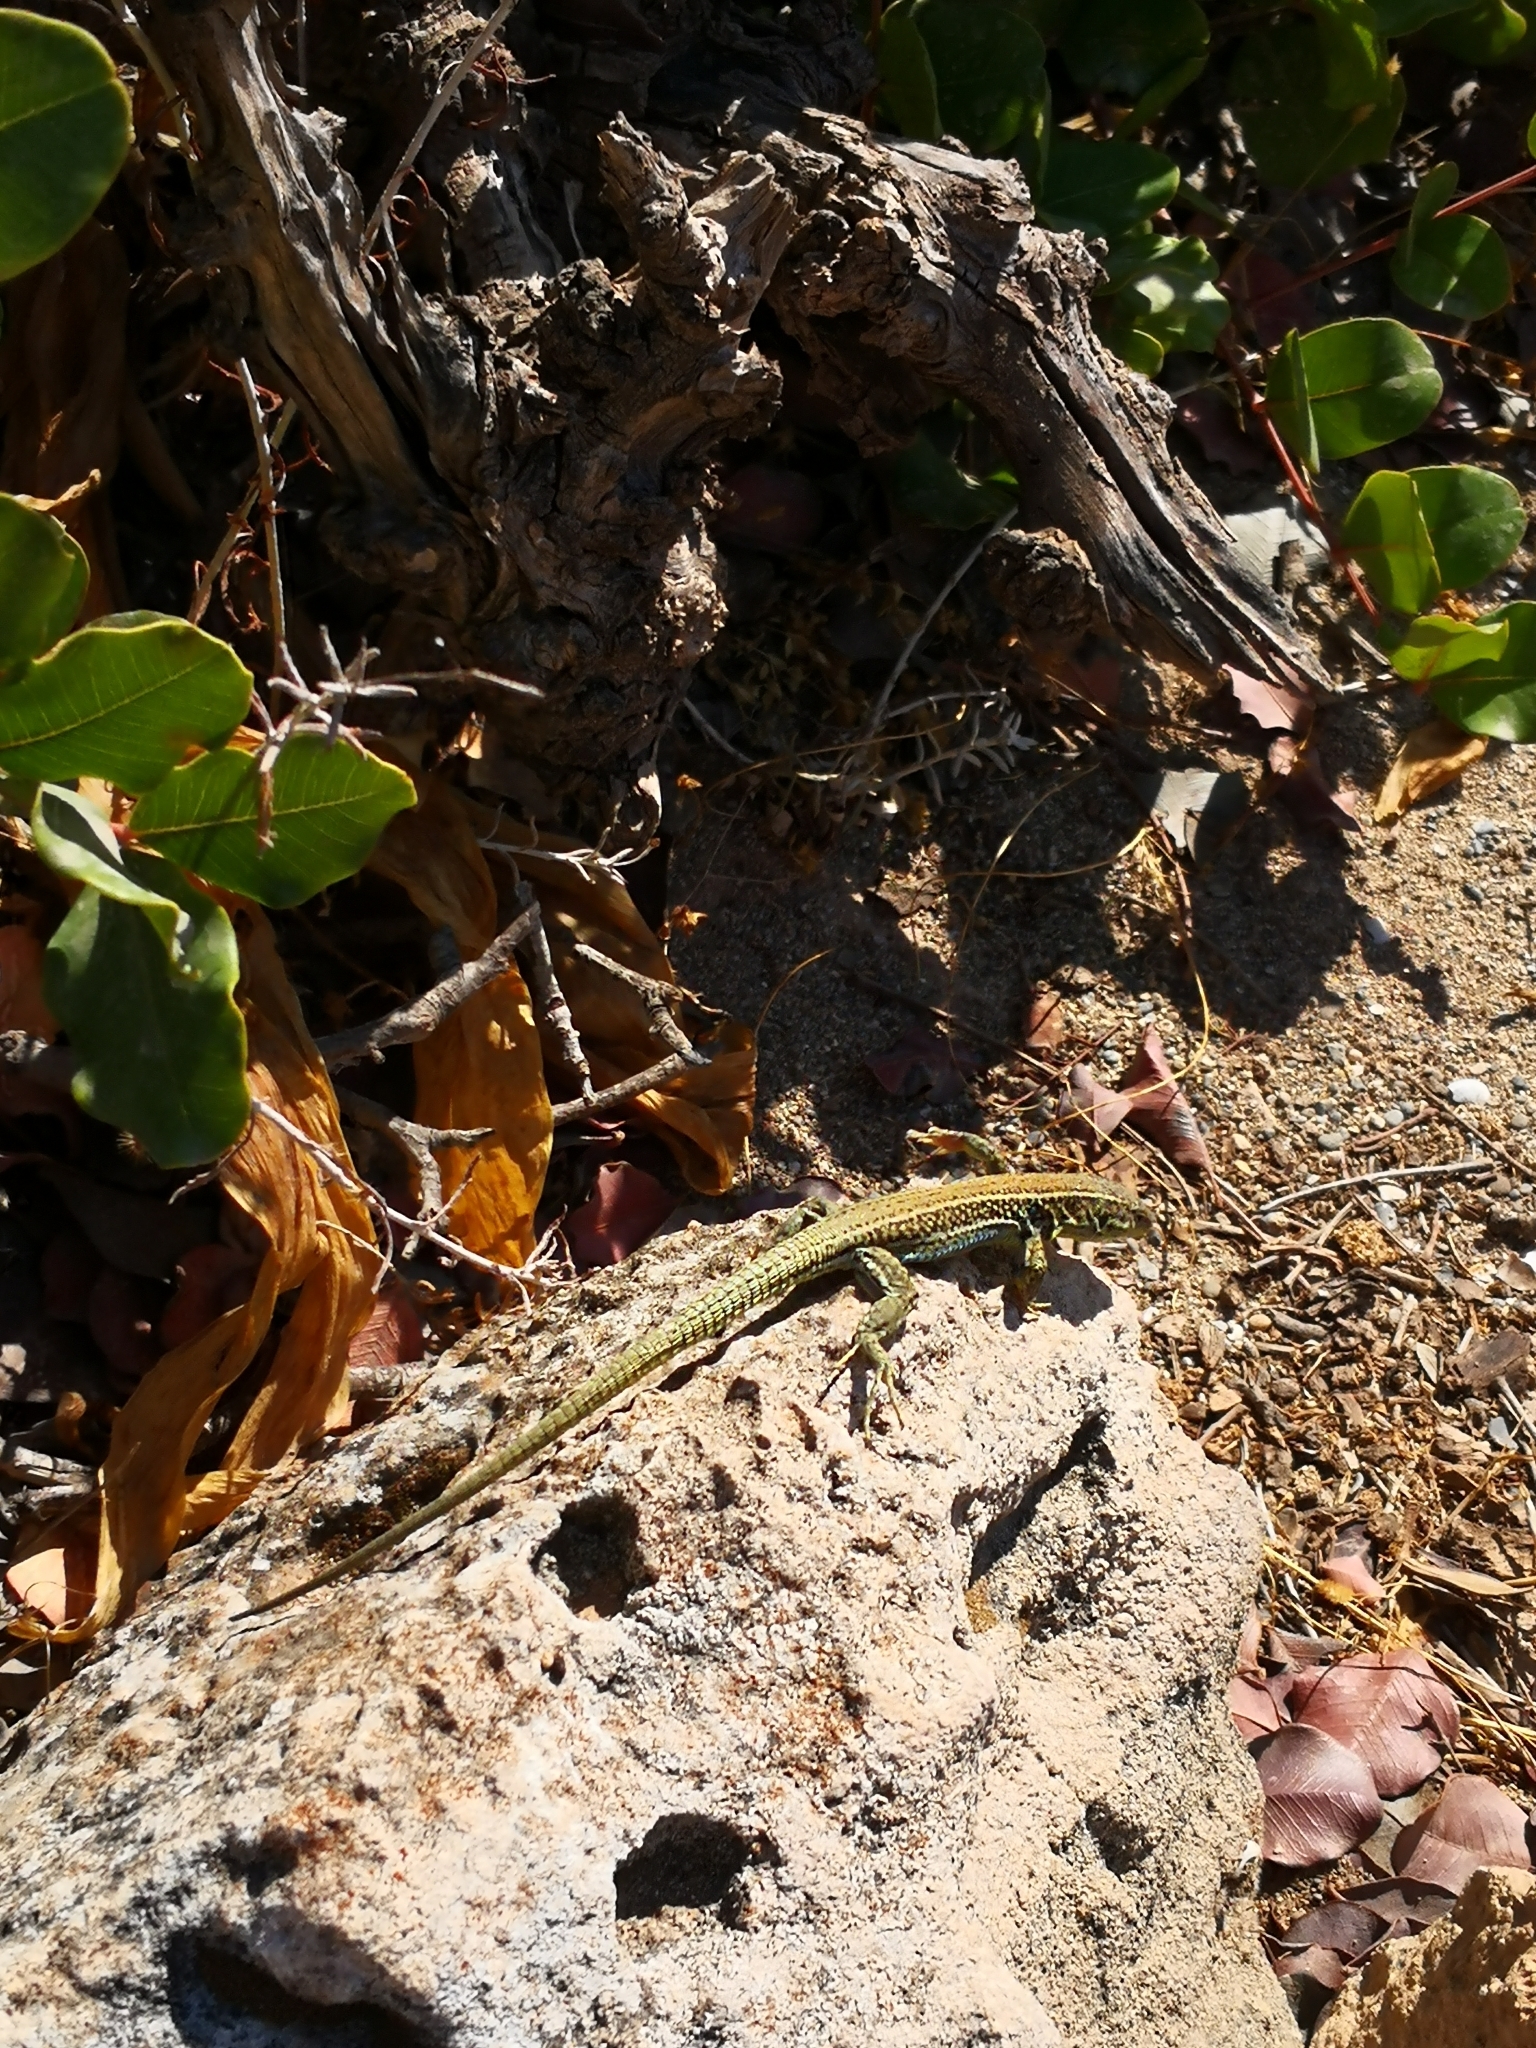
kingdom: Animalia
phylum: Chordata
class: Squamata
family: Lacertidae
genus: Podarcis
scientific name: Podarcis cretensis
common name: Cretan wall lizard
